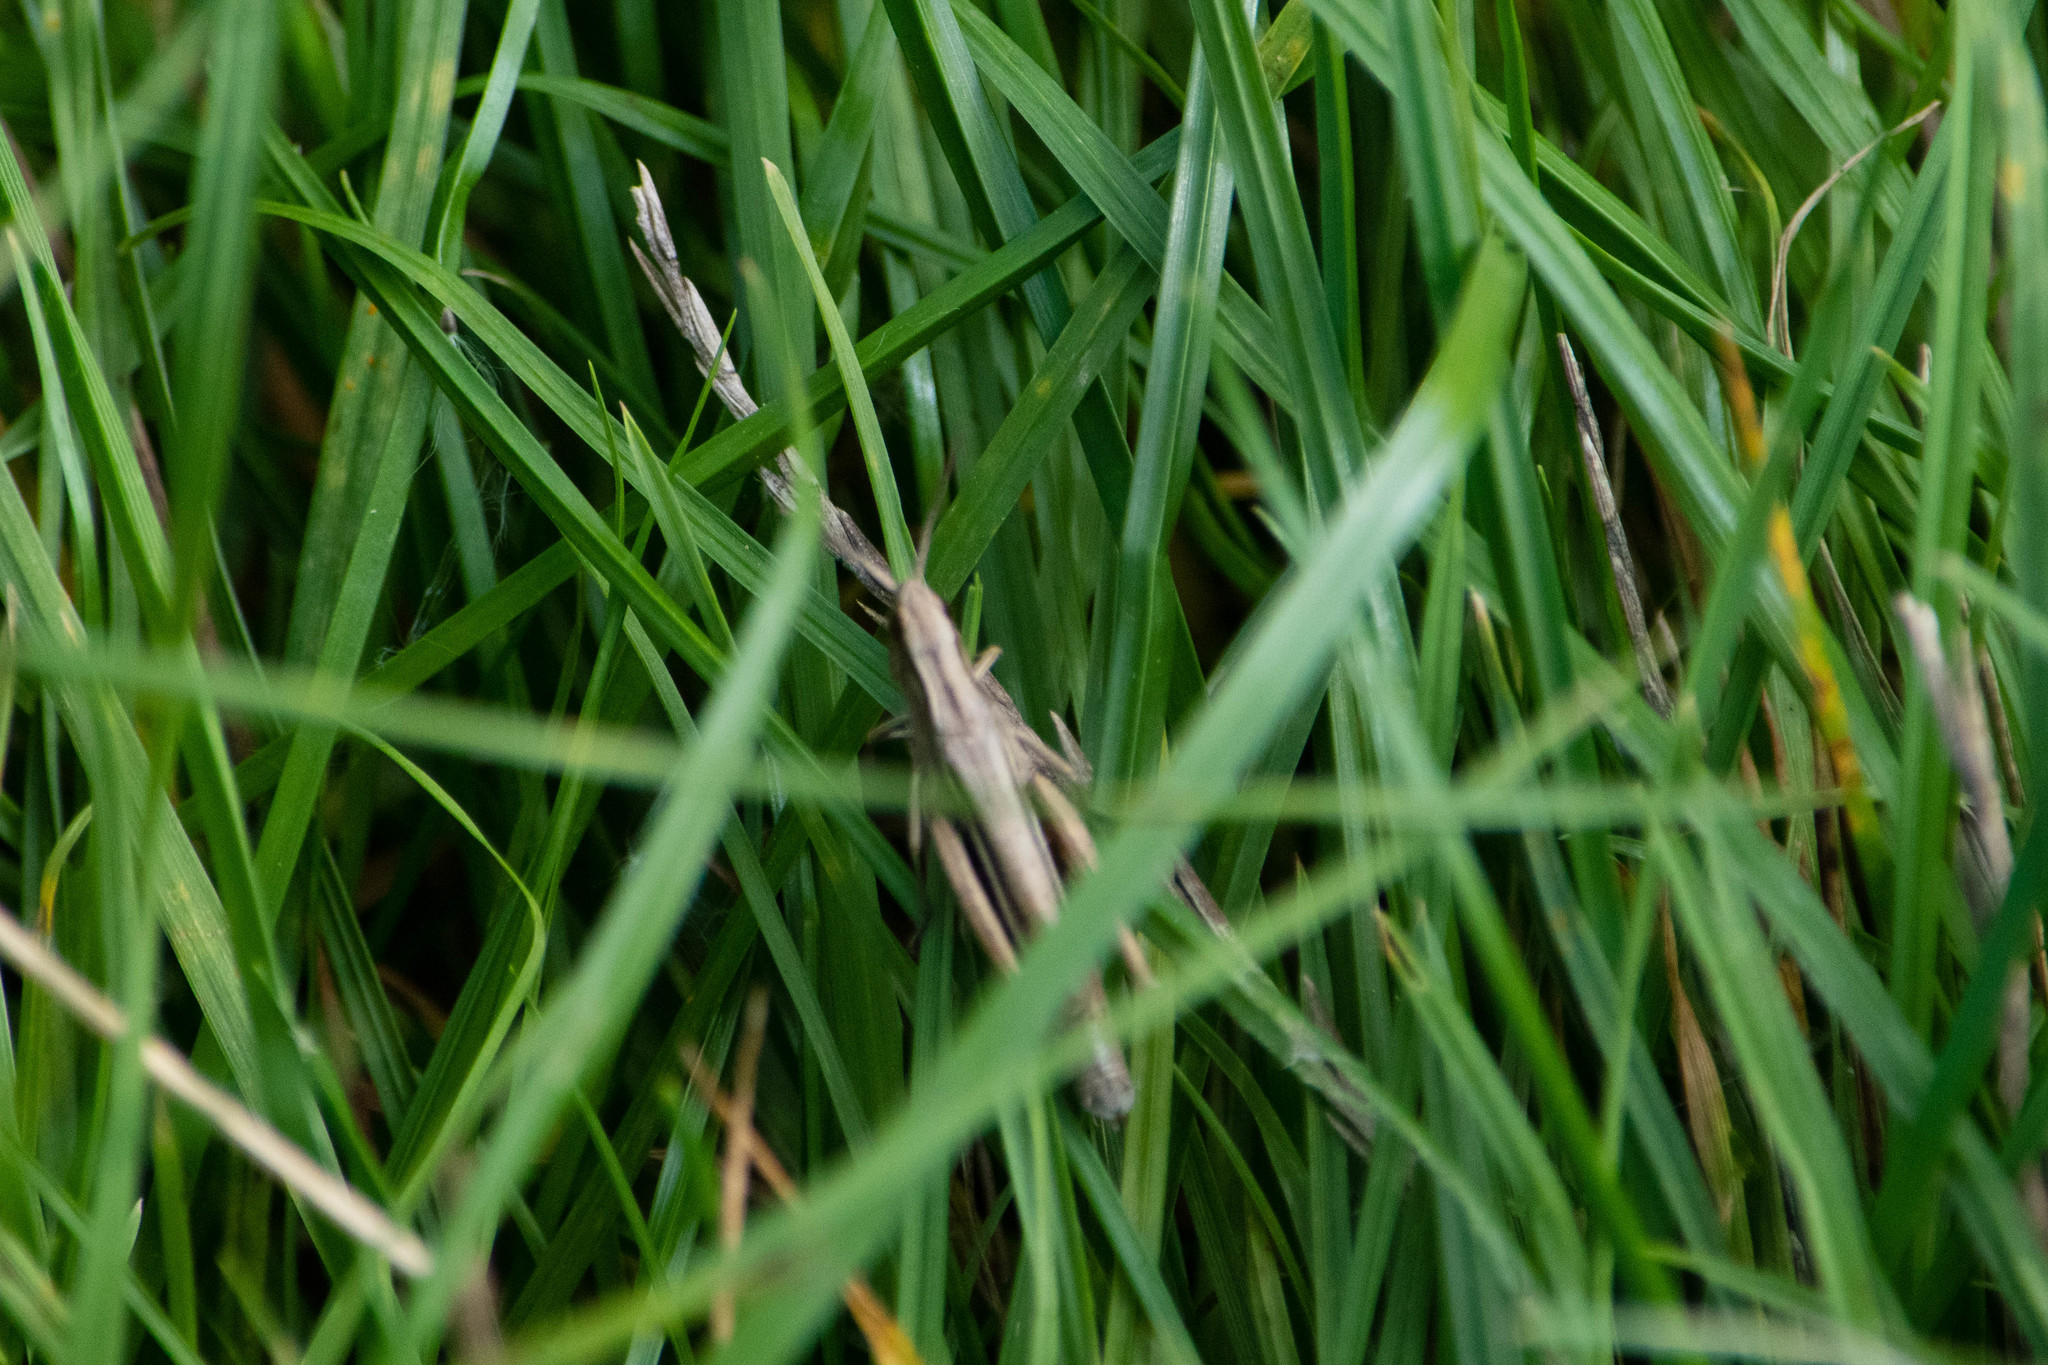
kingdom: Animalia
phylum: Arthropoda
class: Insecta
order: Orthoptera
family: Acrididae
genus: Chorthippus
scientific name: Chorthippus albomarginatus
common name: Lesser marsh grasshopper
